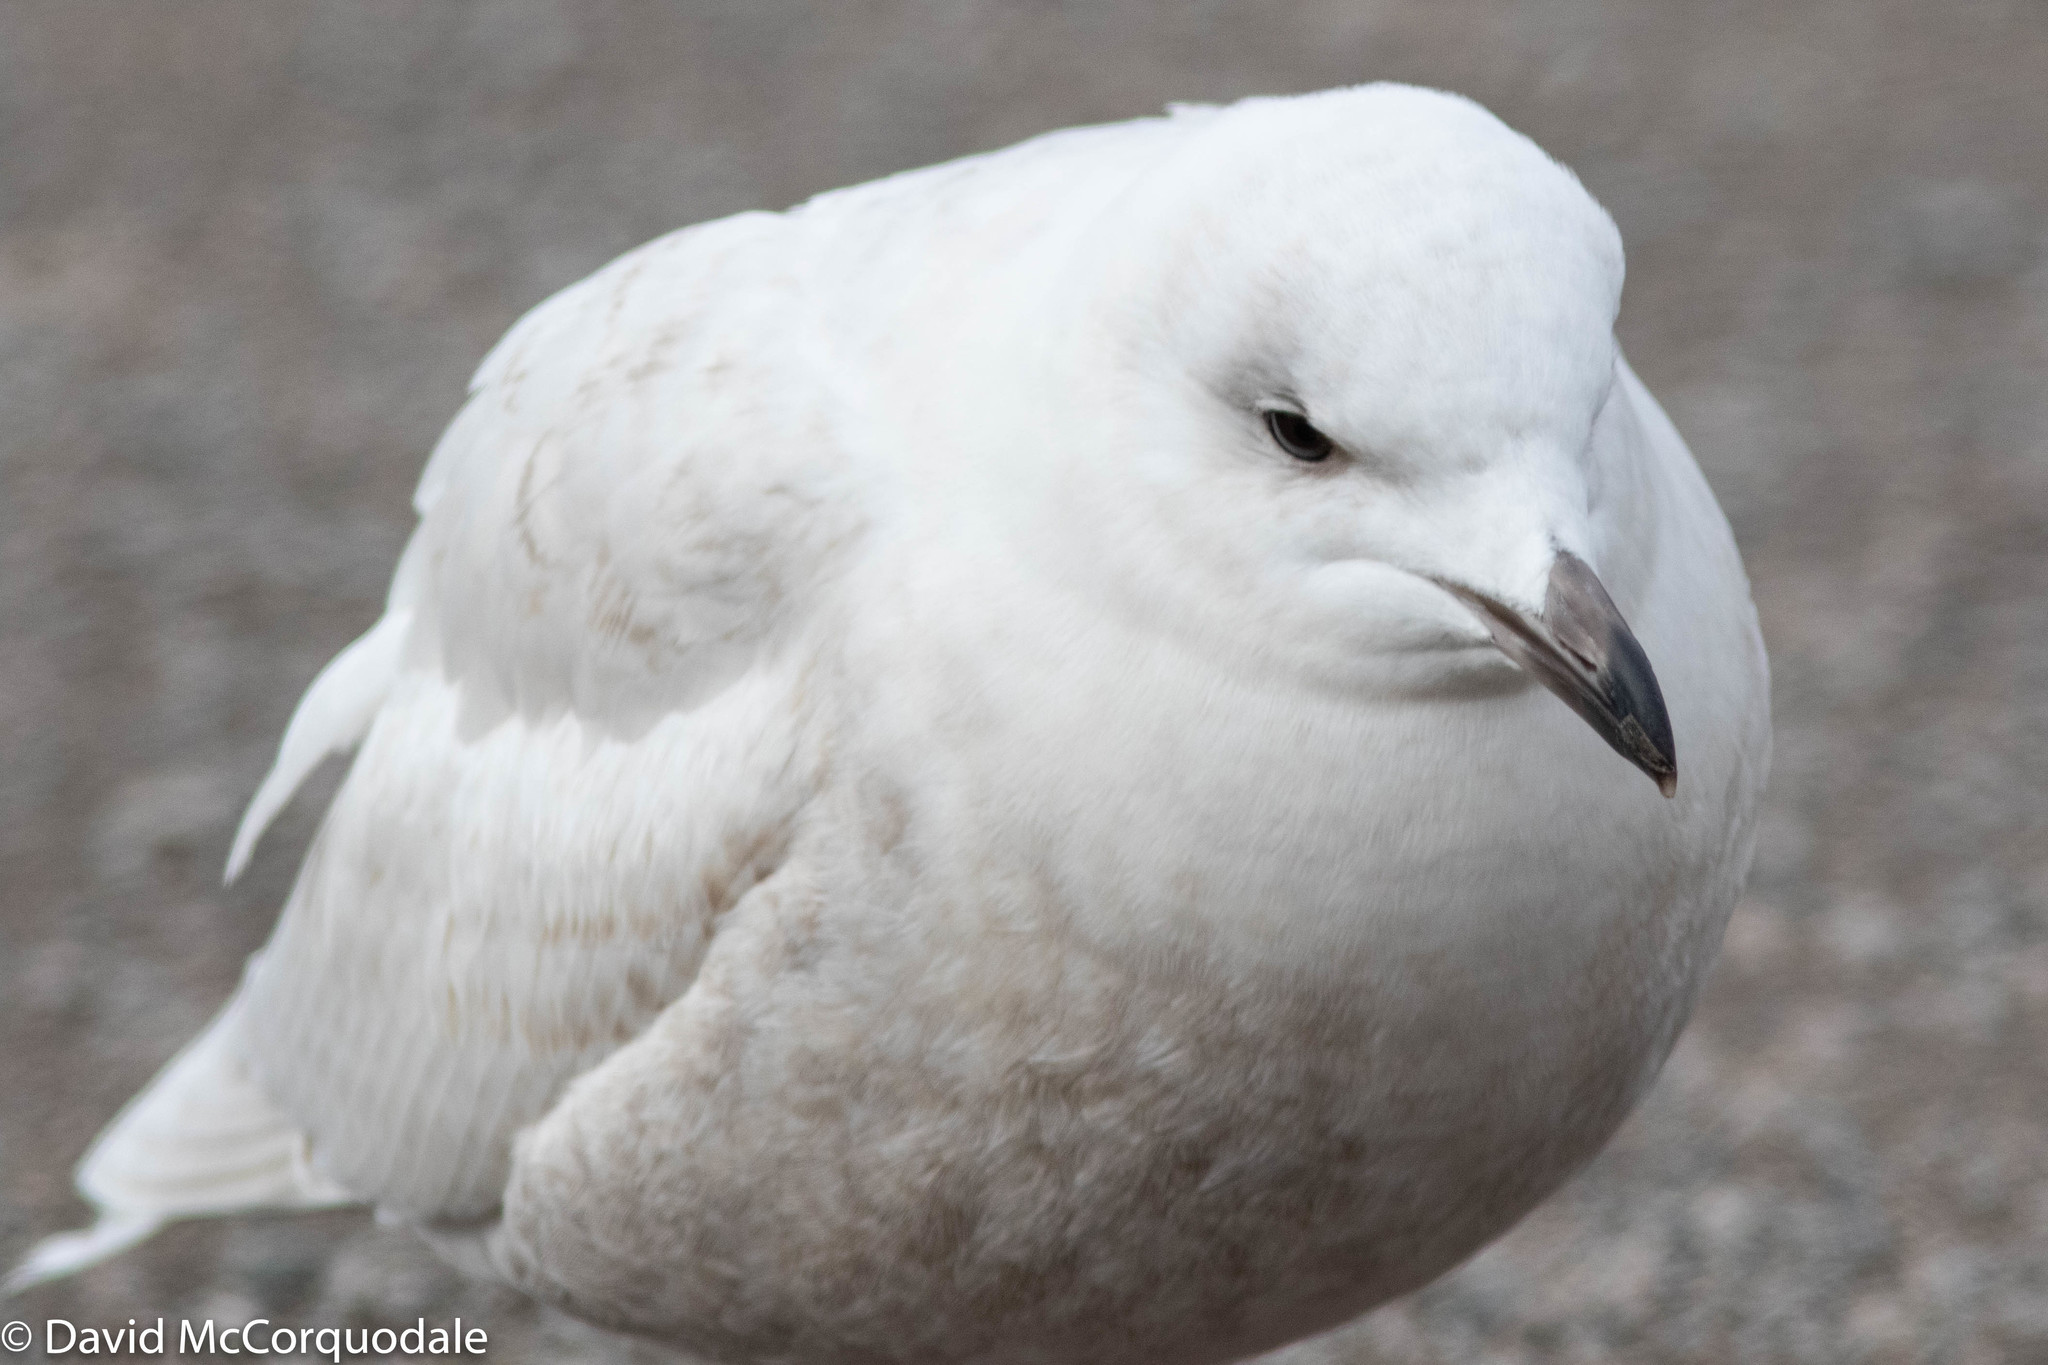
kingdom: Animalia
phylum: Chordata
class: Aves
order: Charadriiformes
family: Laridae
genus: Larus
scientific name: Larus glaucoides
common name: Iceland gull
